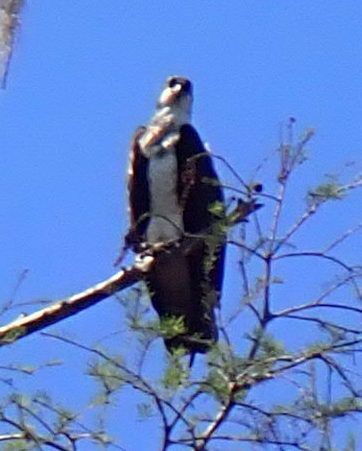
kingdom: Animalia
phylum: Chordata
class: Aves
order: Accipitriformes
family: Pandionidae
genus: Pandion
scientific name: Pandion haliaetus
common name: Osprey
